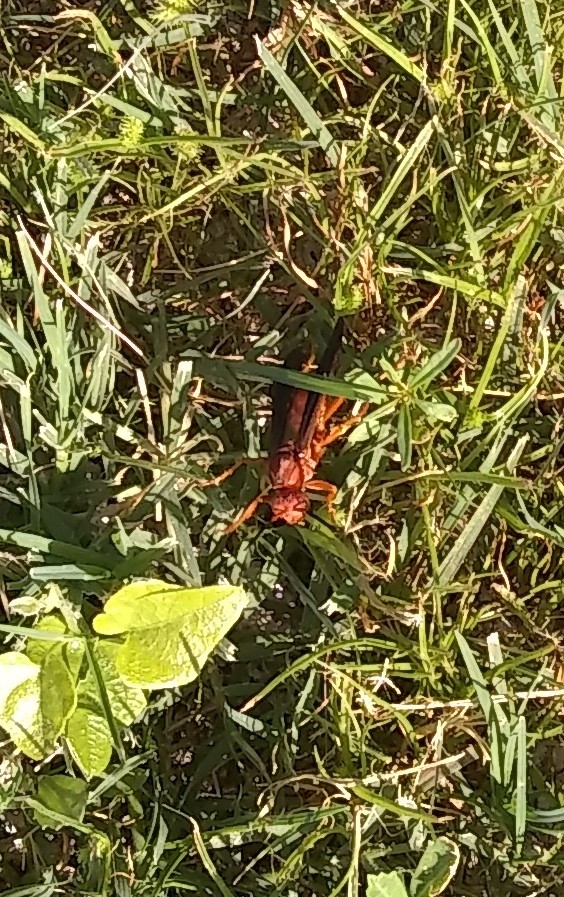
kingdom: Animalia
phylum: Arthropoda
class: Insecta
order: Hymenoptera
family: Vespidae
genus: Fuscopolistes
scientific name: Fuscopolistes
